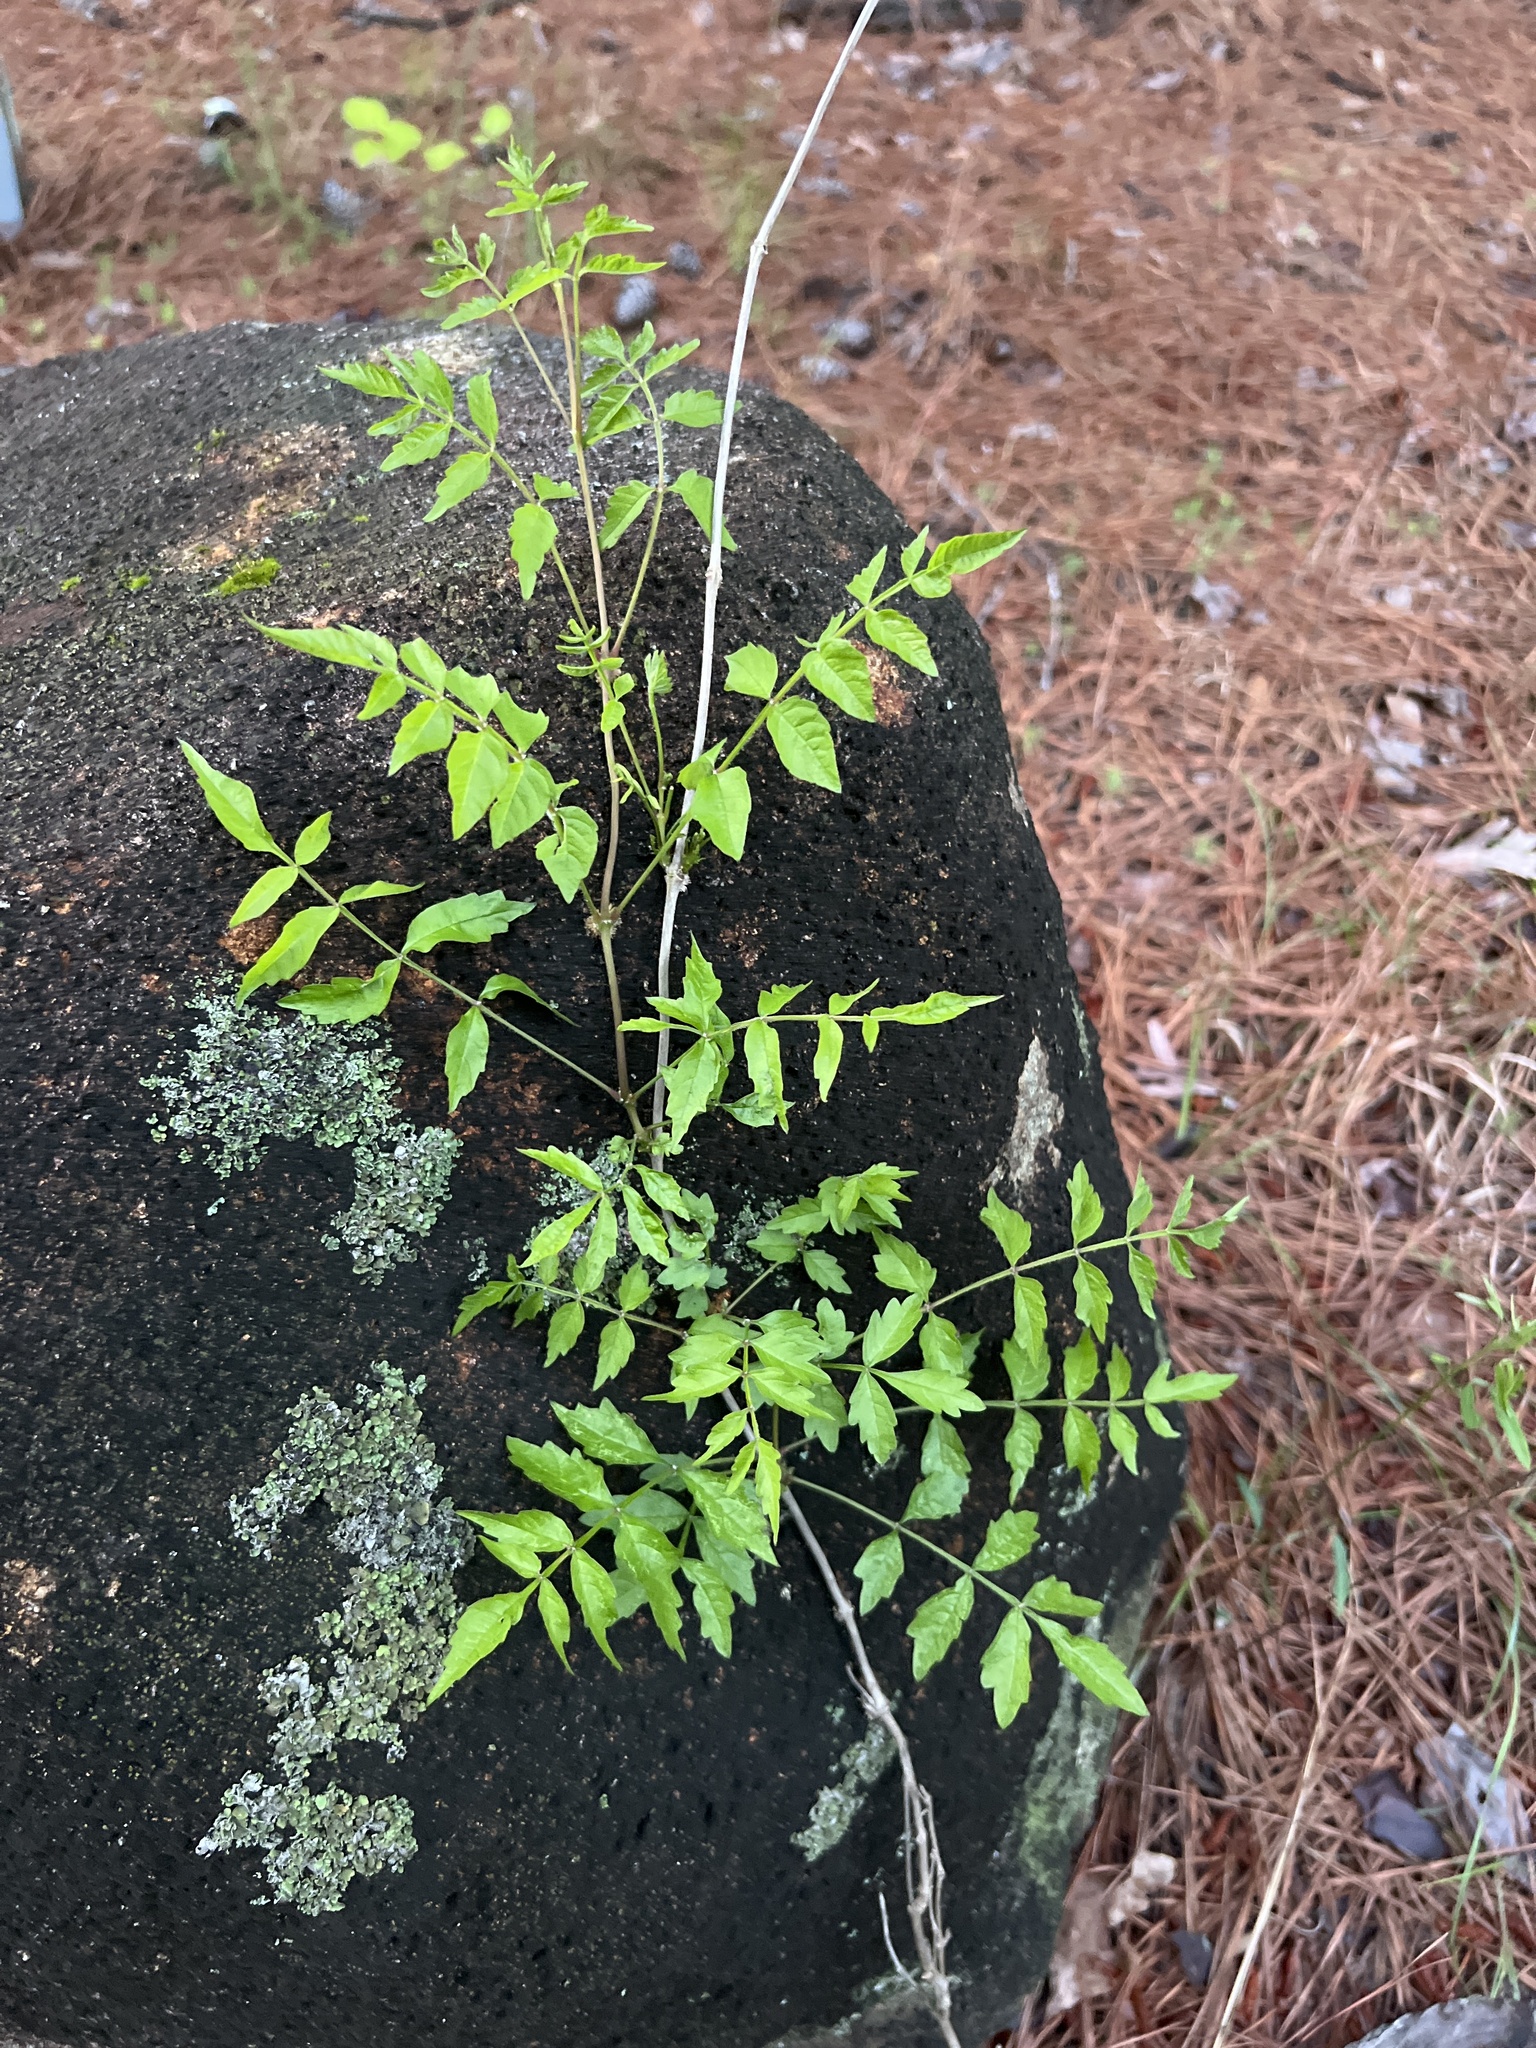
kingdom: Plantae
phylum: Tracheophyta
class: Magnoliopsida
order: Lamiales
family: Bignoniaceae
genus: Campsis
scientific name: Campsis radicans
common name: Trumpet-creeper
